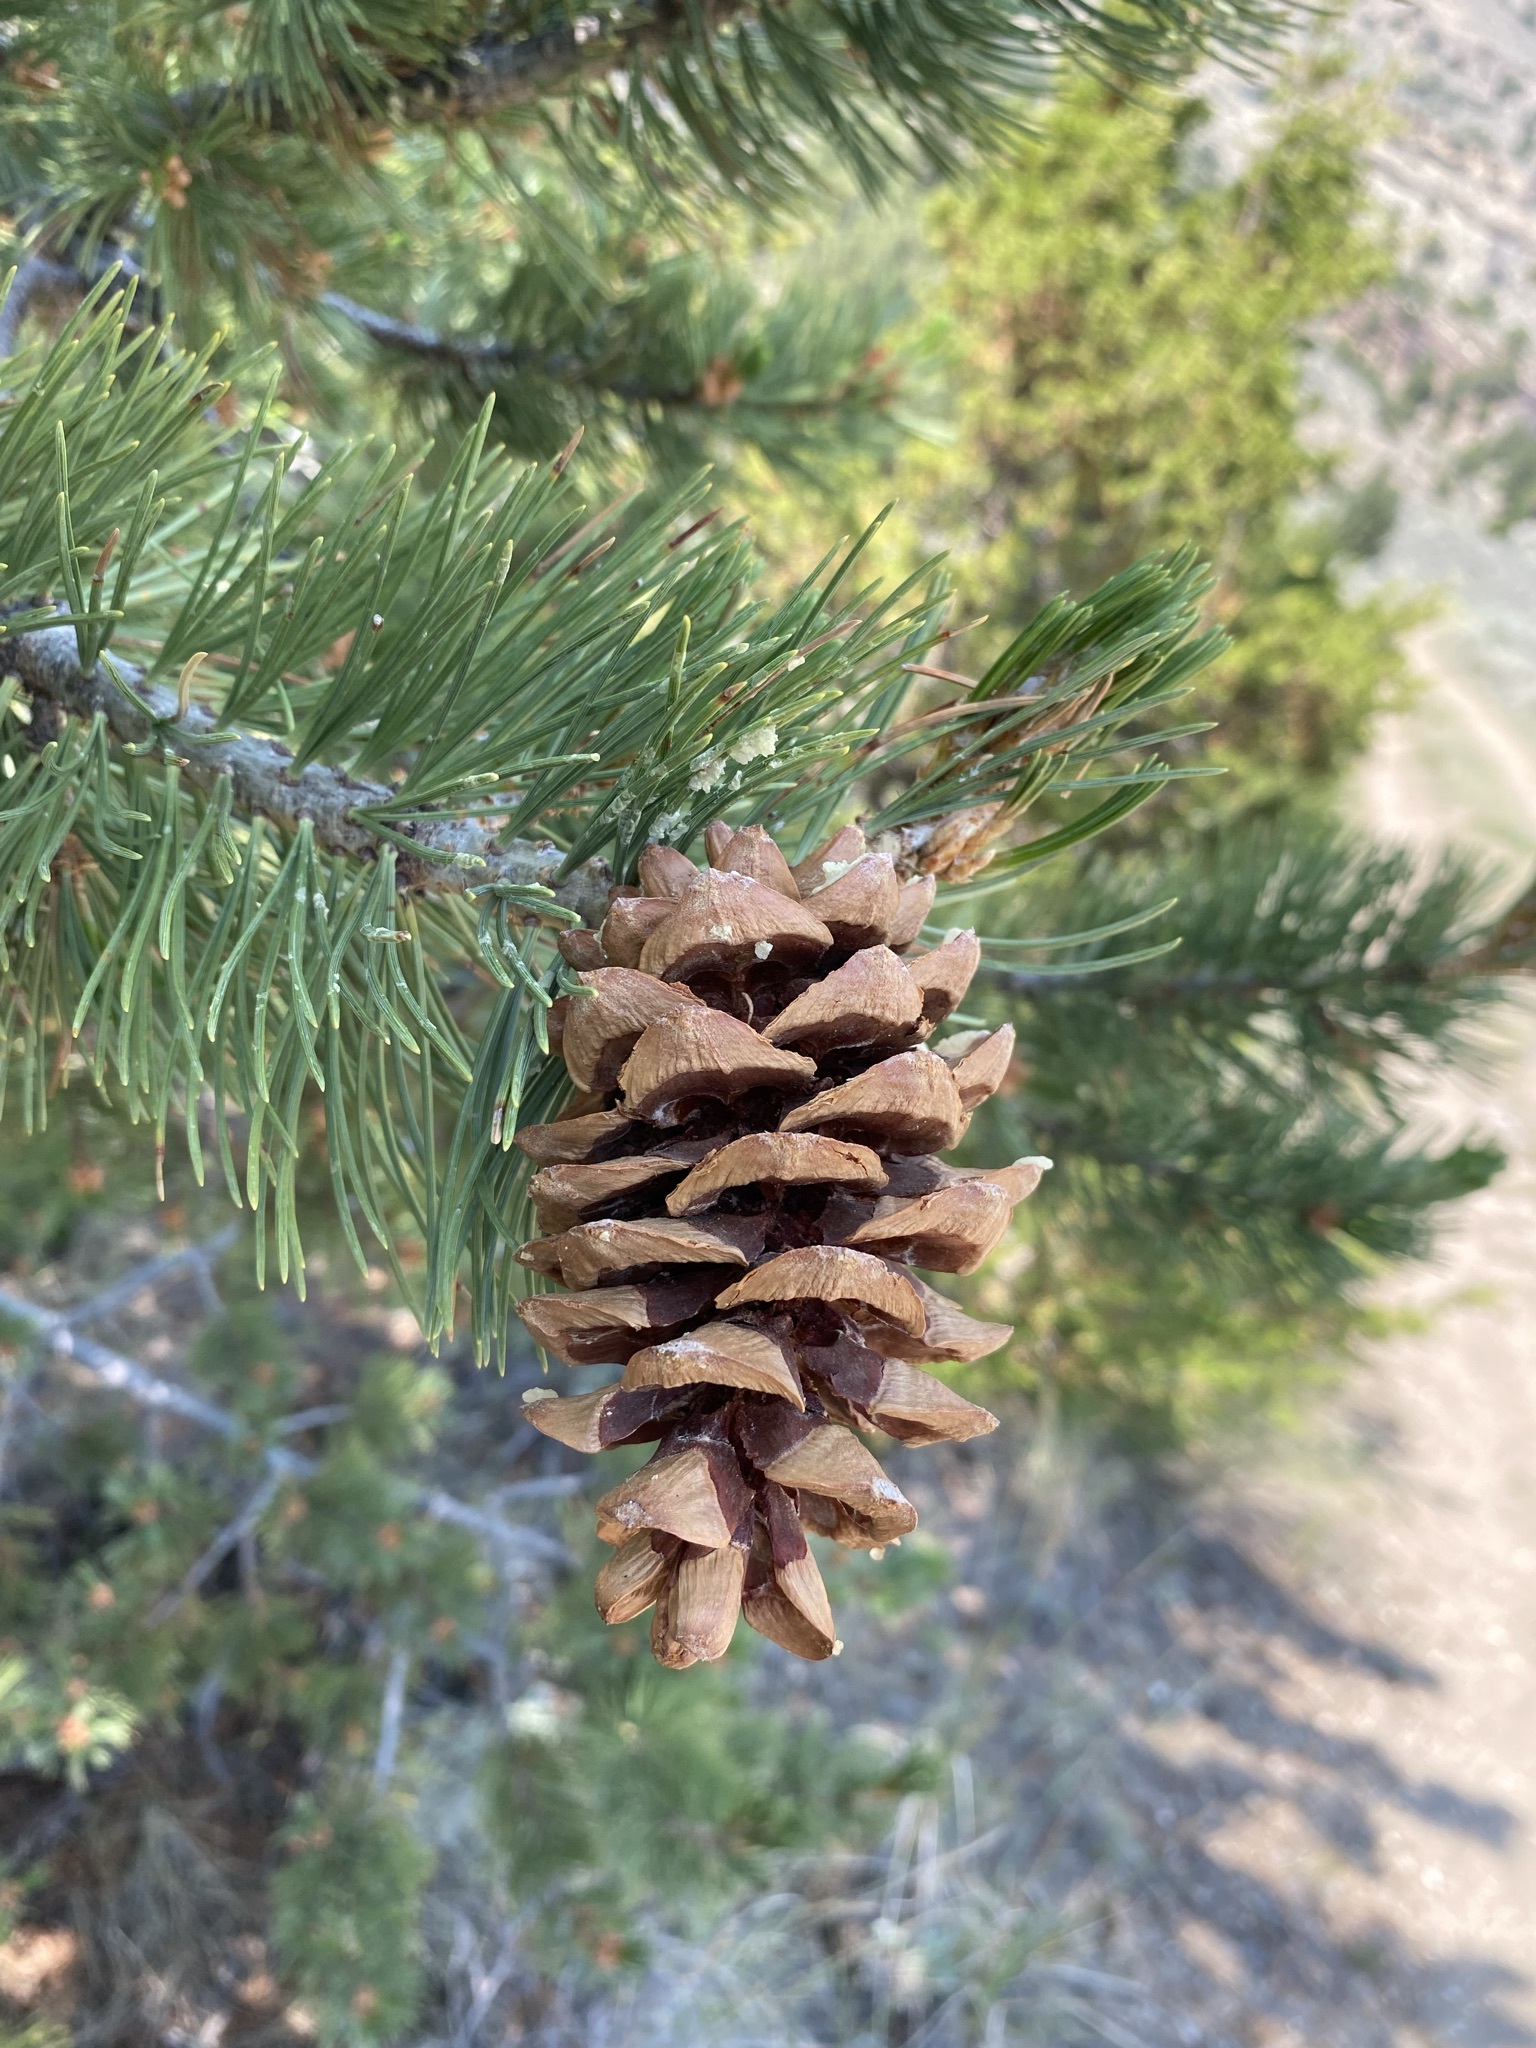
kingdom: Plantae
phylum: Tracheophyta
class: Pinopsida
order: Pinales
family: Pinaceae
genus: Pinus
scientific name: Pinus flexilis
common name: Limber pine
